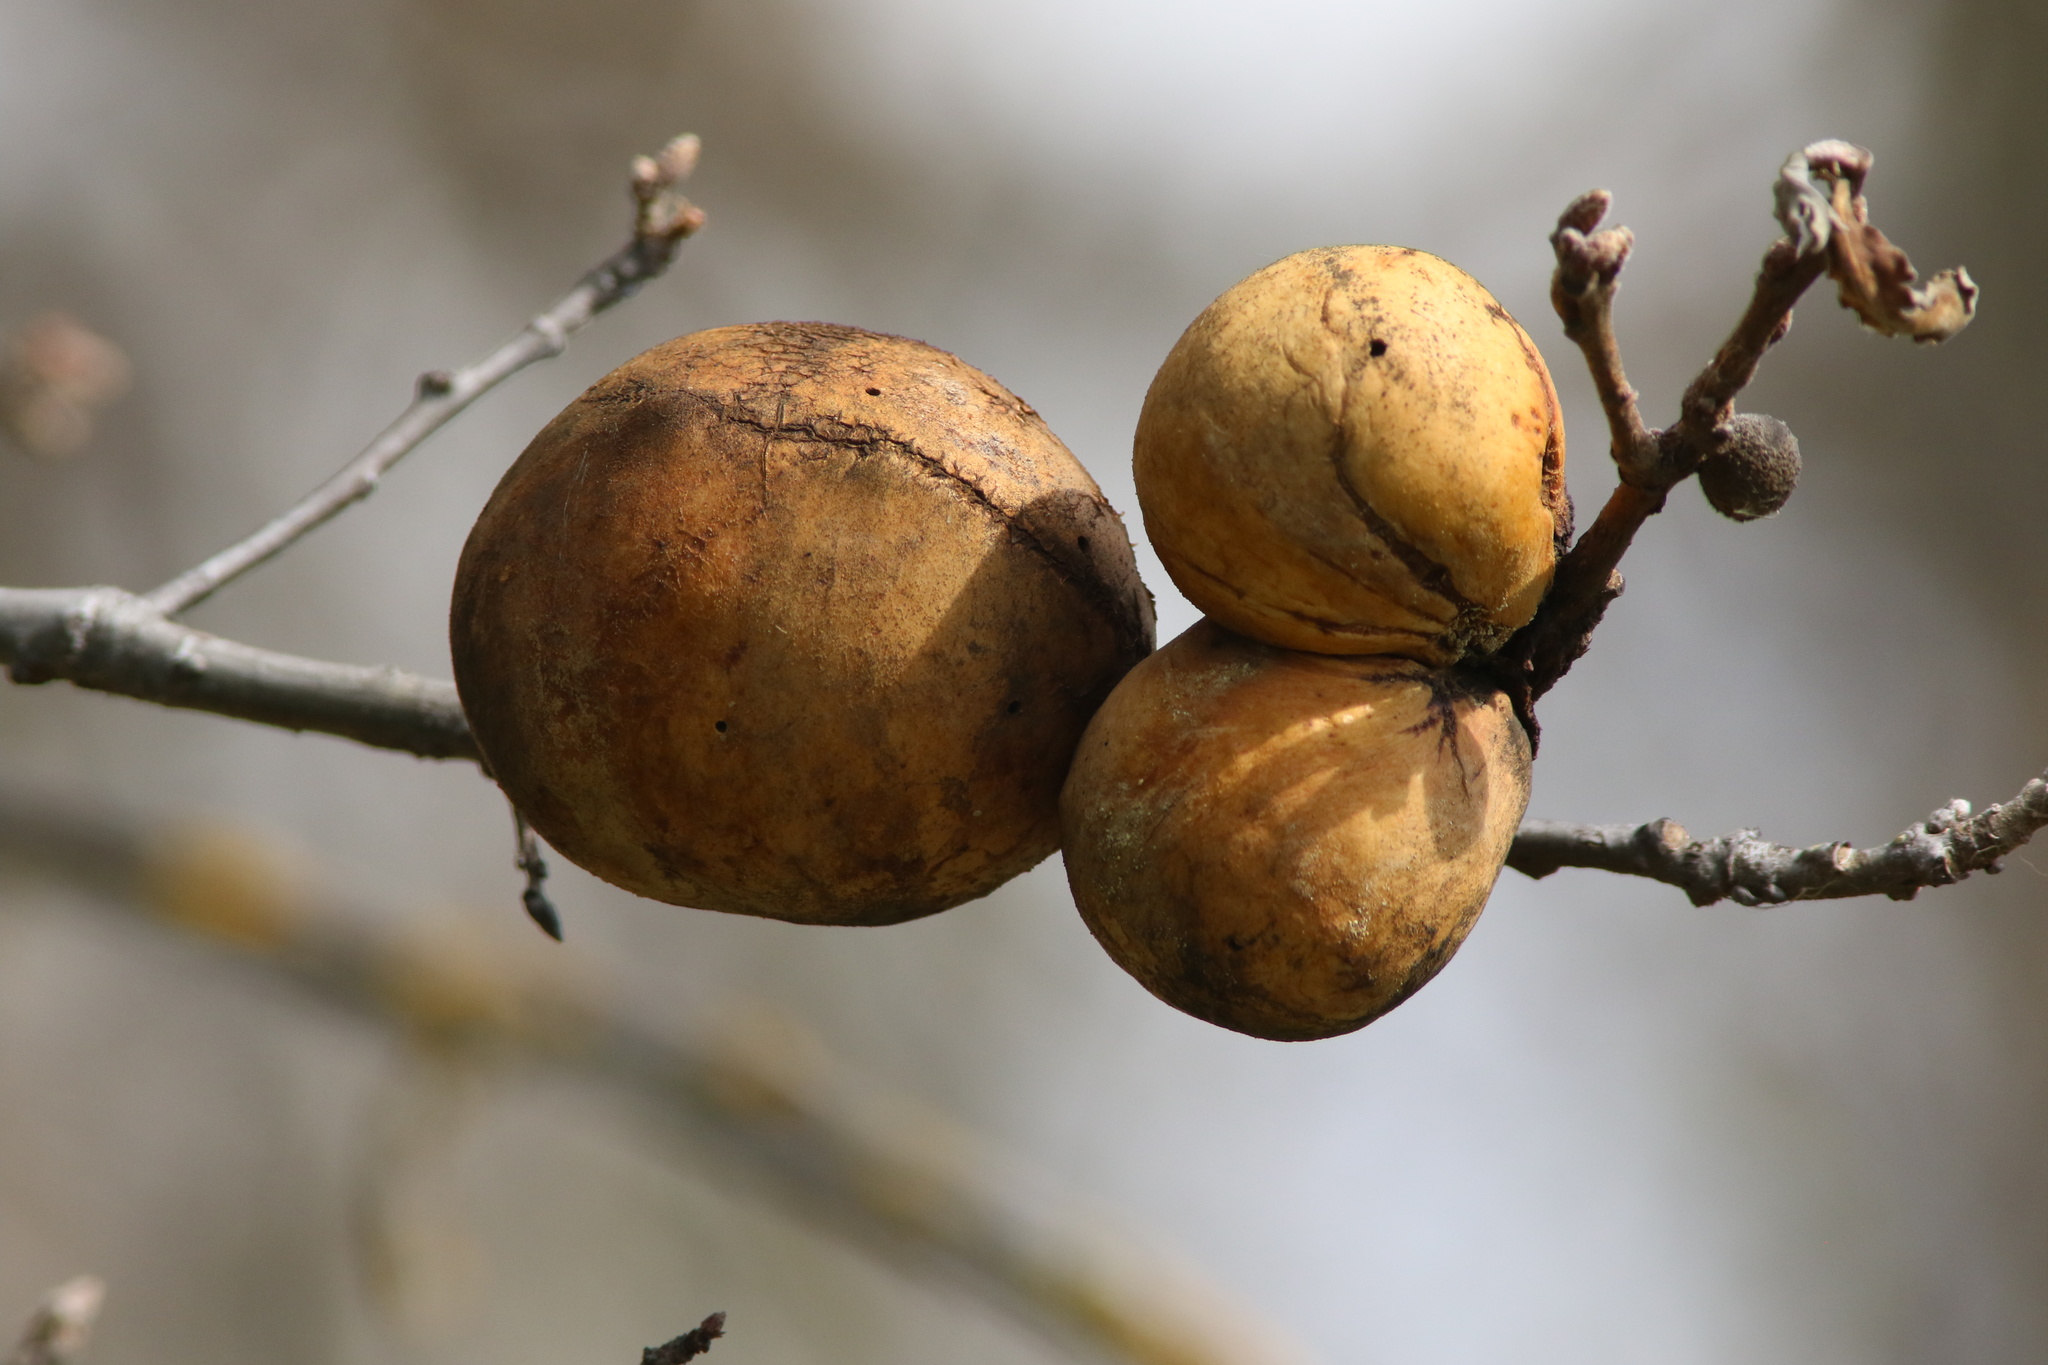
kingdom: Animalia
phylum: Arthropoda
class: Insecta
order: Hymenoptera
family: Cynipidae
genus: Andricus
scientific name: Andricus quercuscalifornicus
